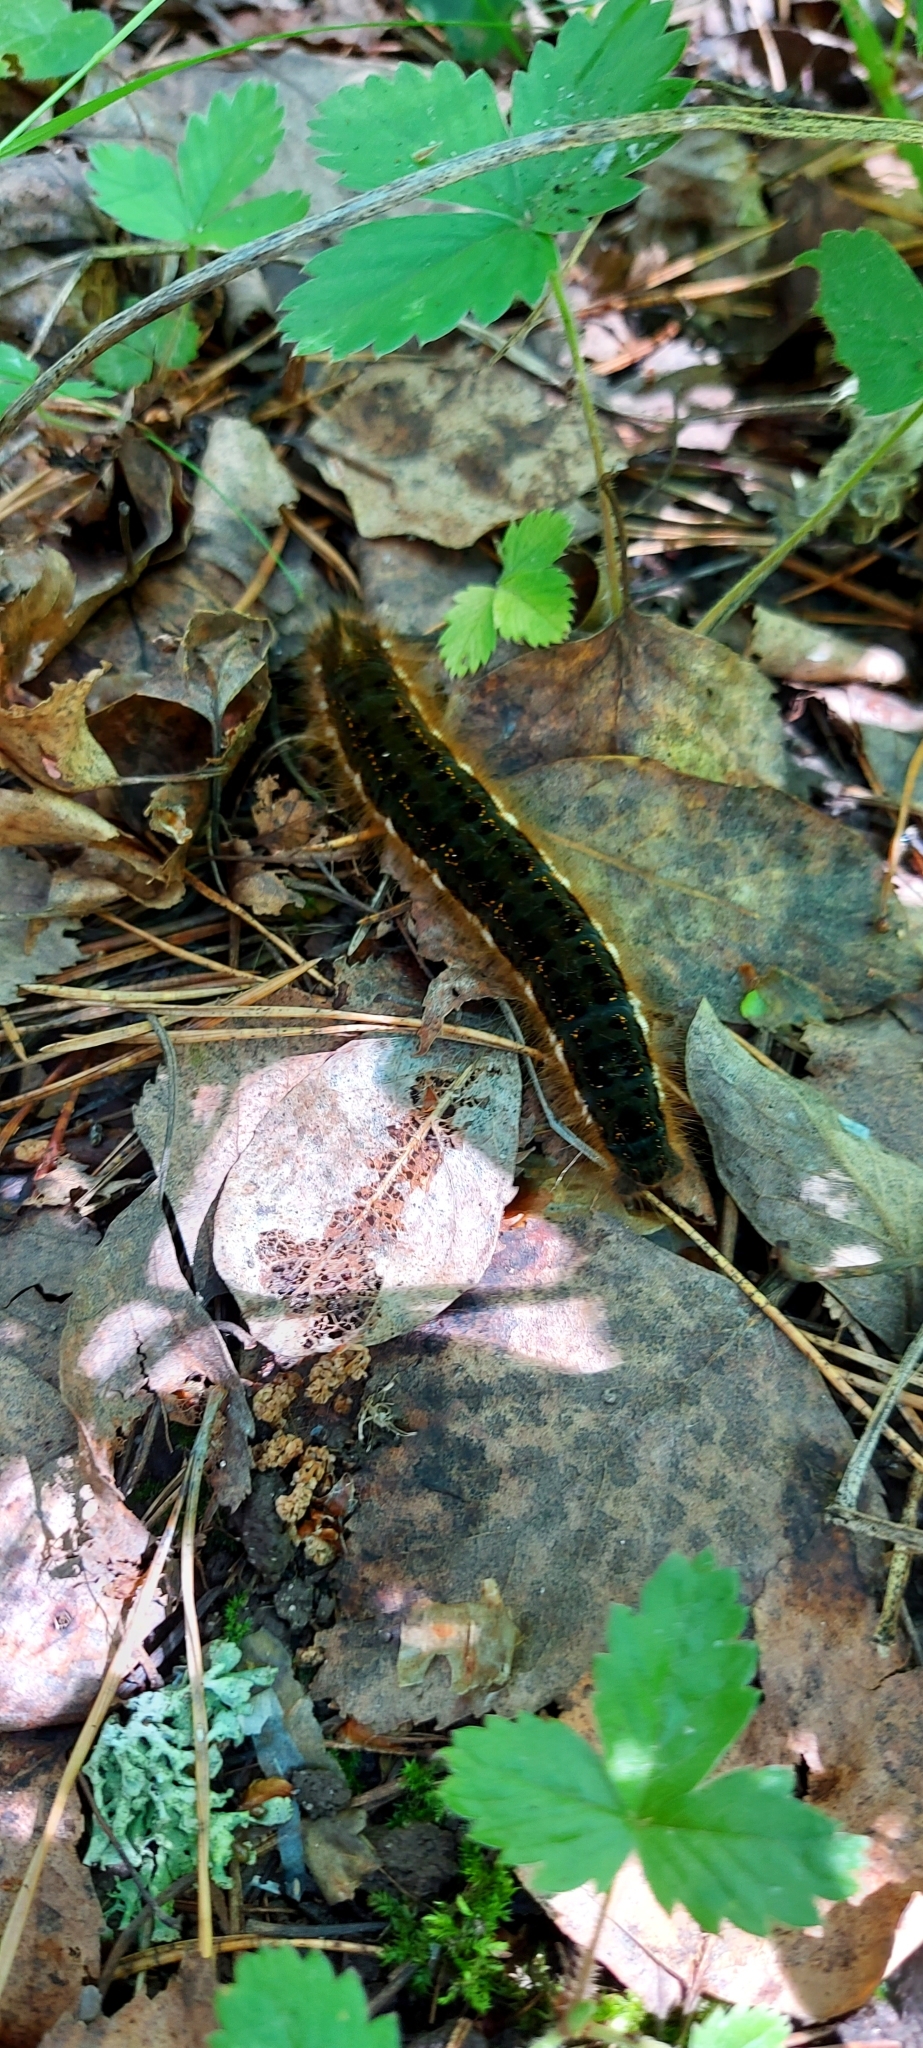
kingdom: Animalia
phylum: Arthropoda
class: Insecta
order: Lepidoptera
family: Lasiocampidae
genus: Euthrix
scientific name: Euthrix potatoria
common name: Drinker
